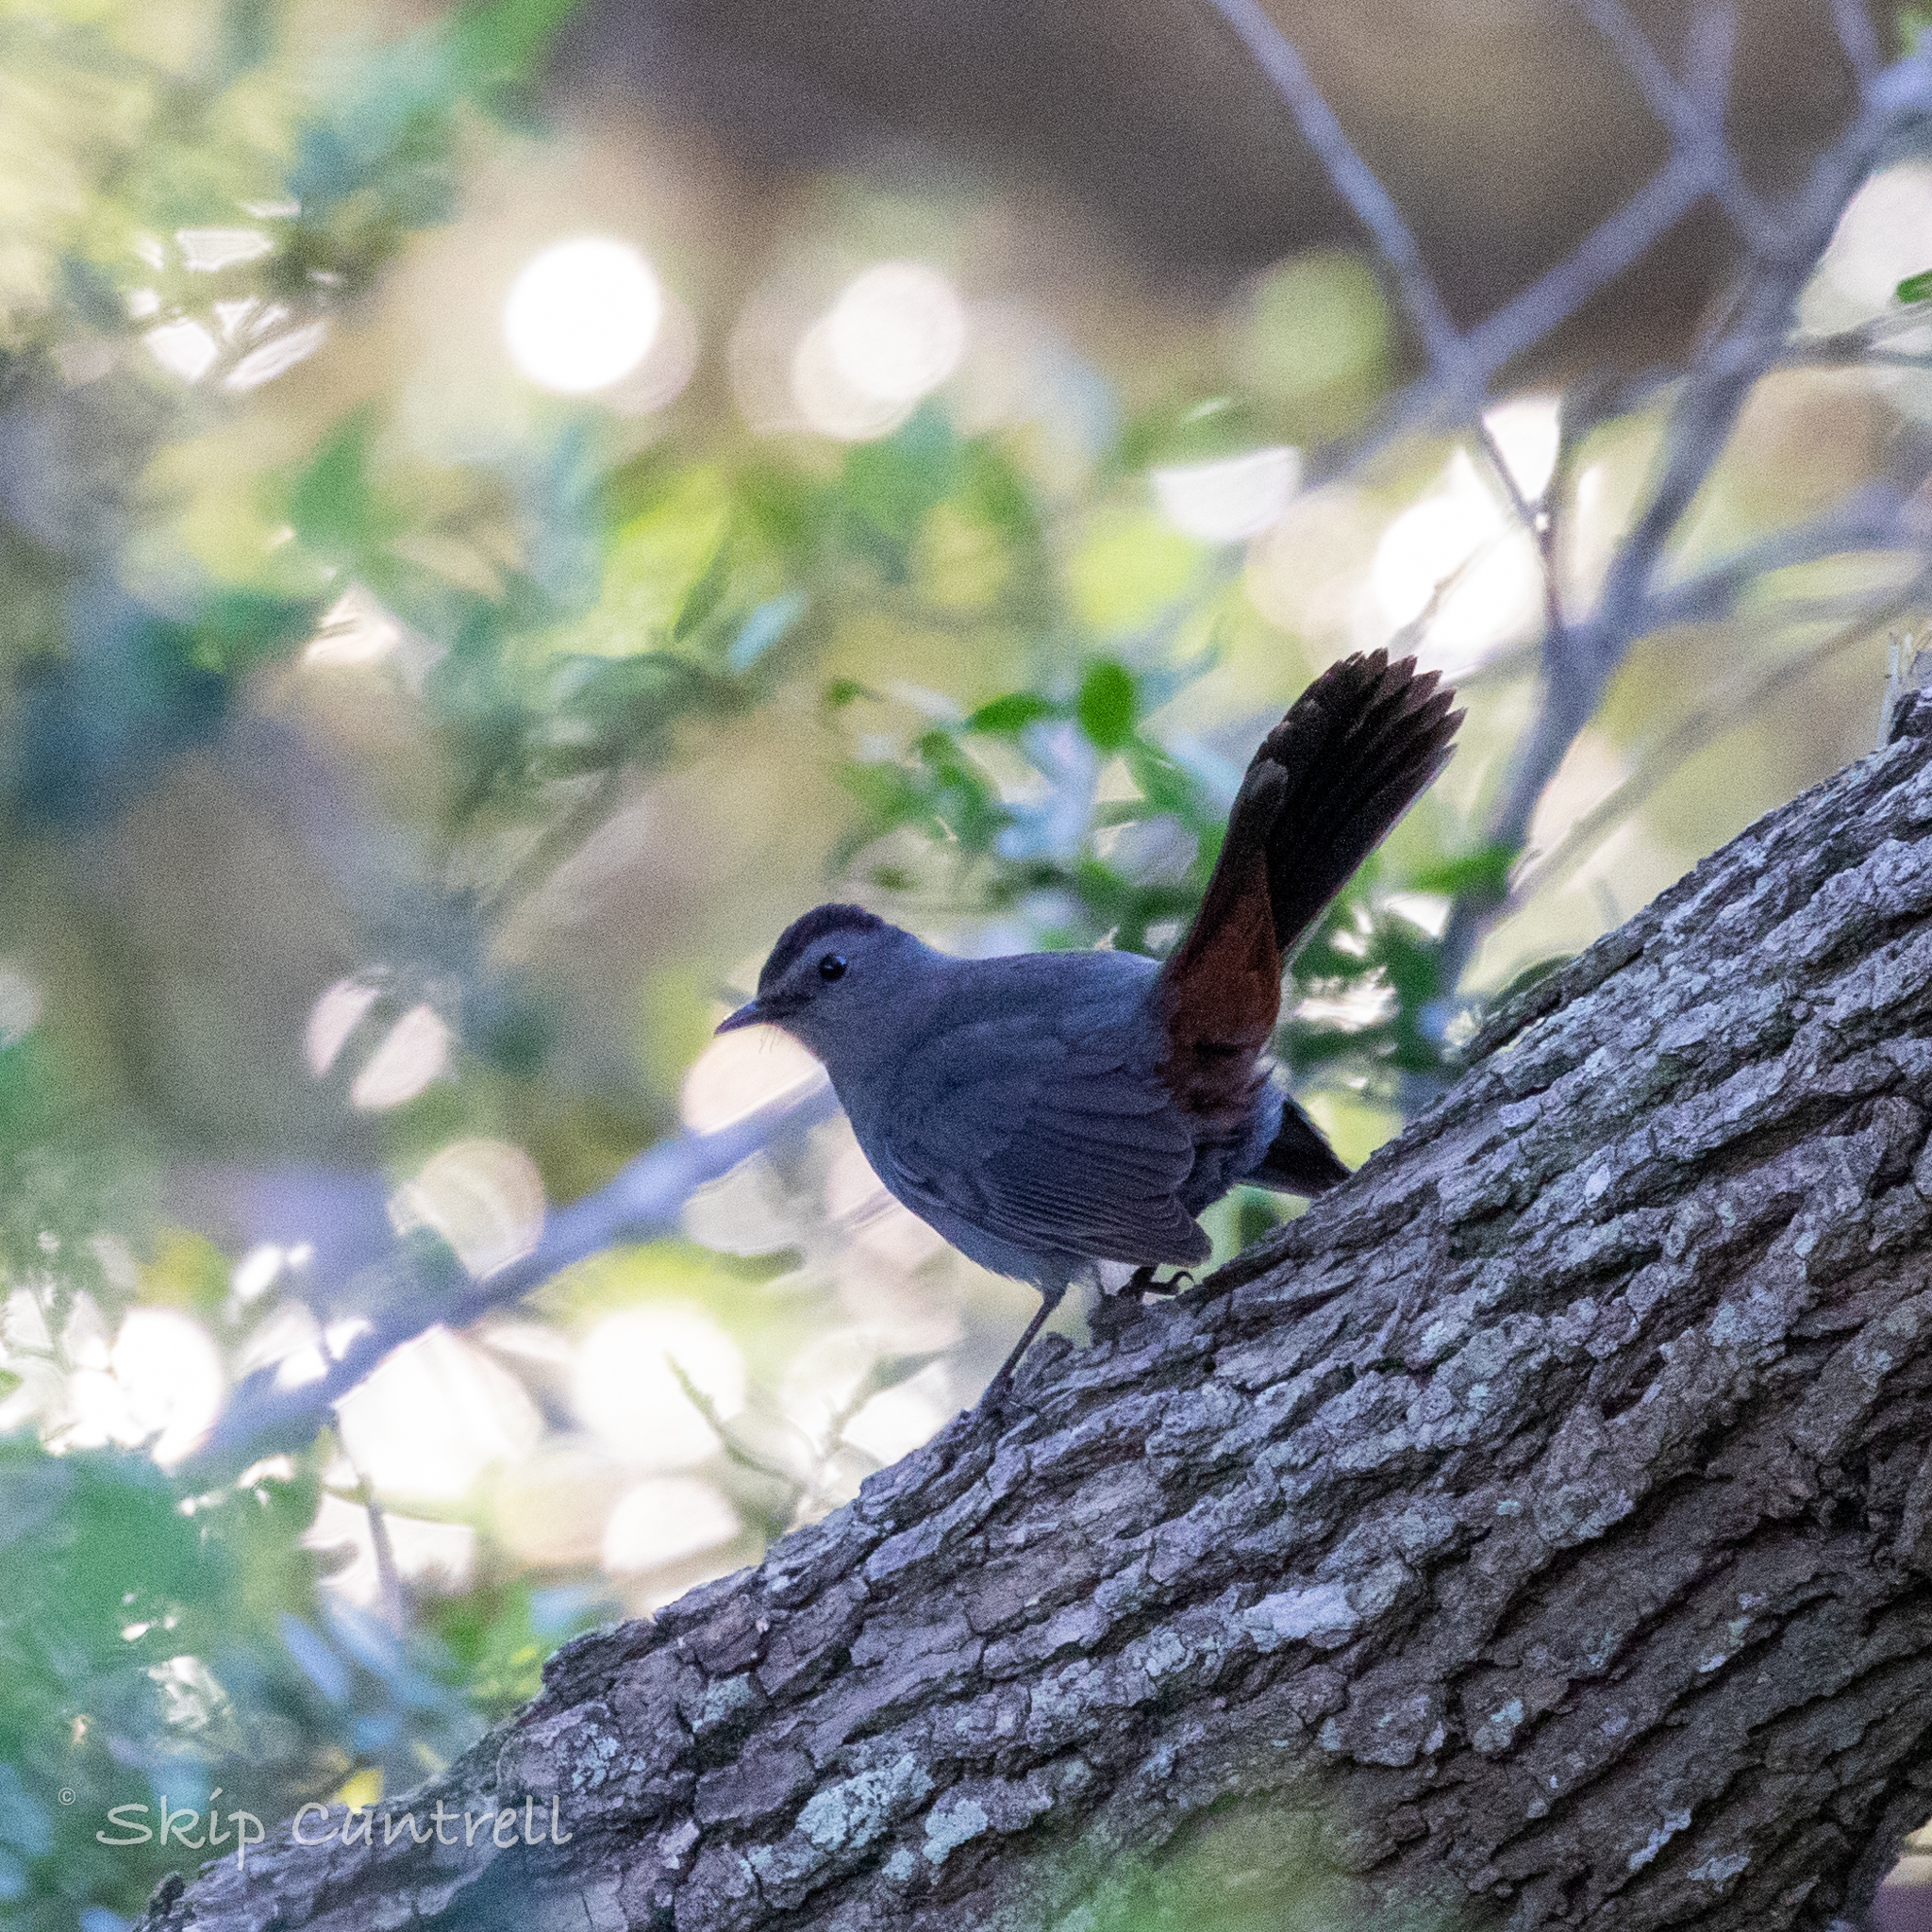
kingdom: Animalia
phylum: Chordata
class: Aves
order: Passeriformes
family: Mimidae
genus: Dumetella
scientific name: Dumetella carolinensis
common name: Gray catbird
